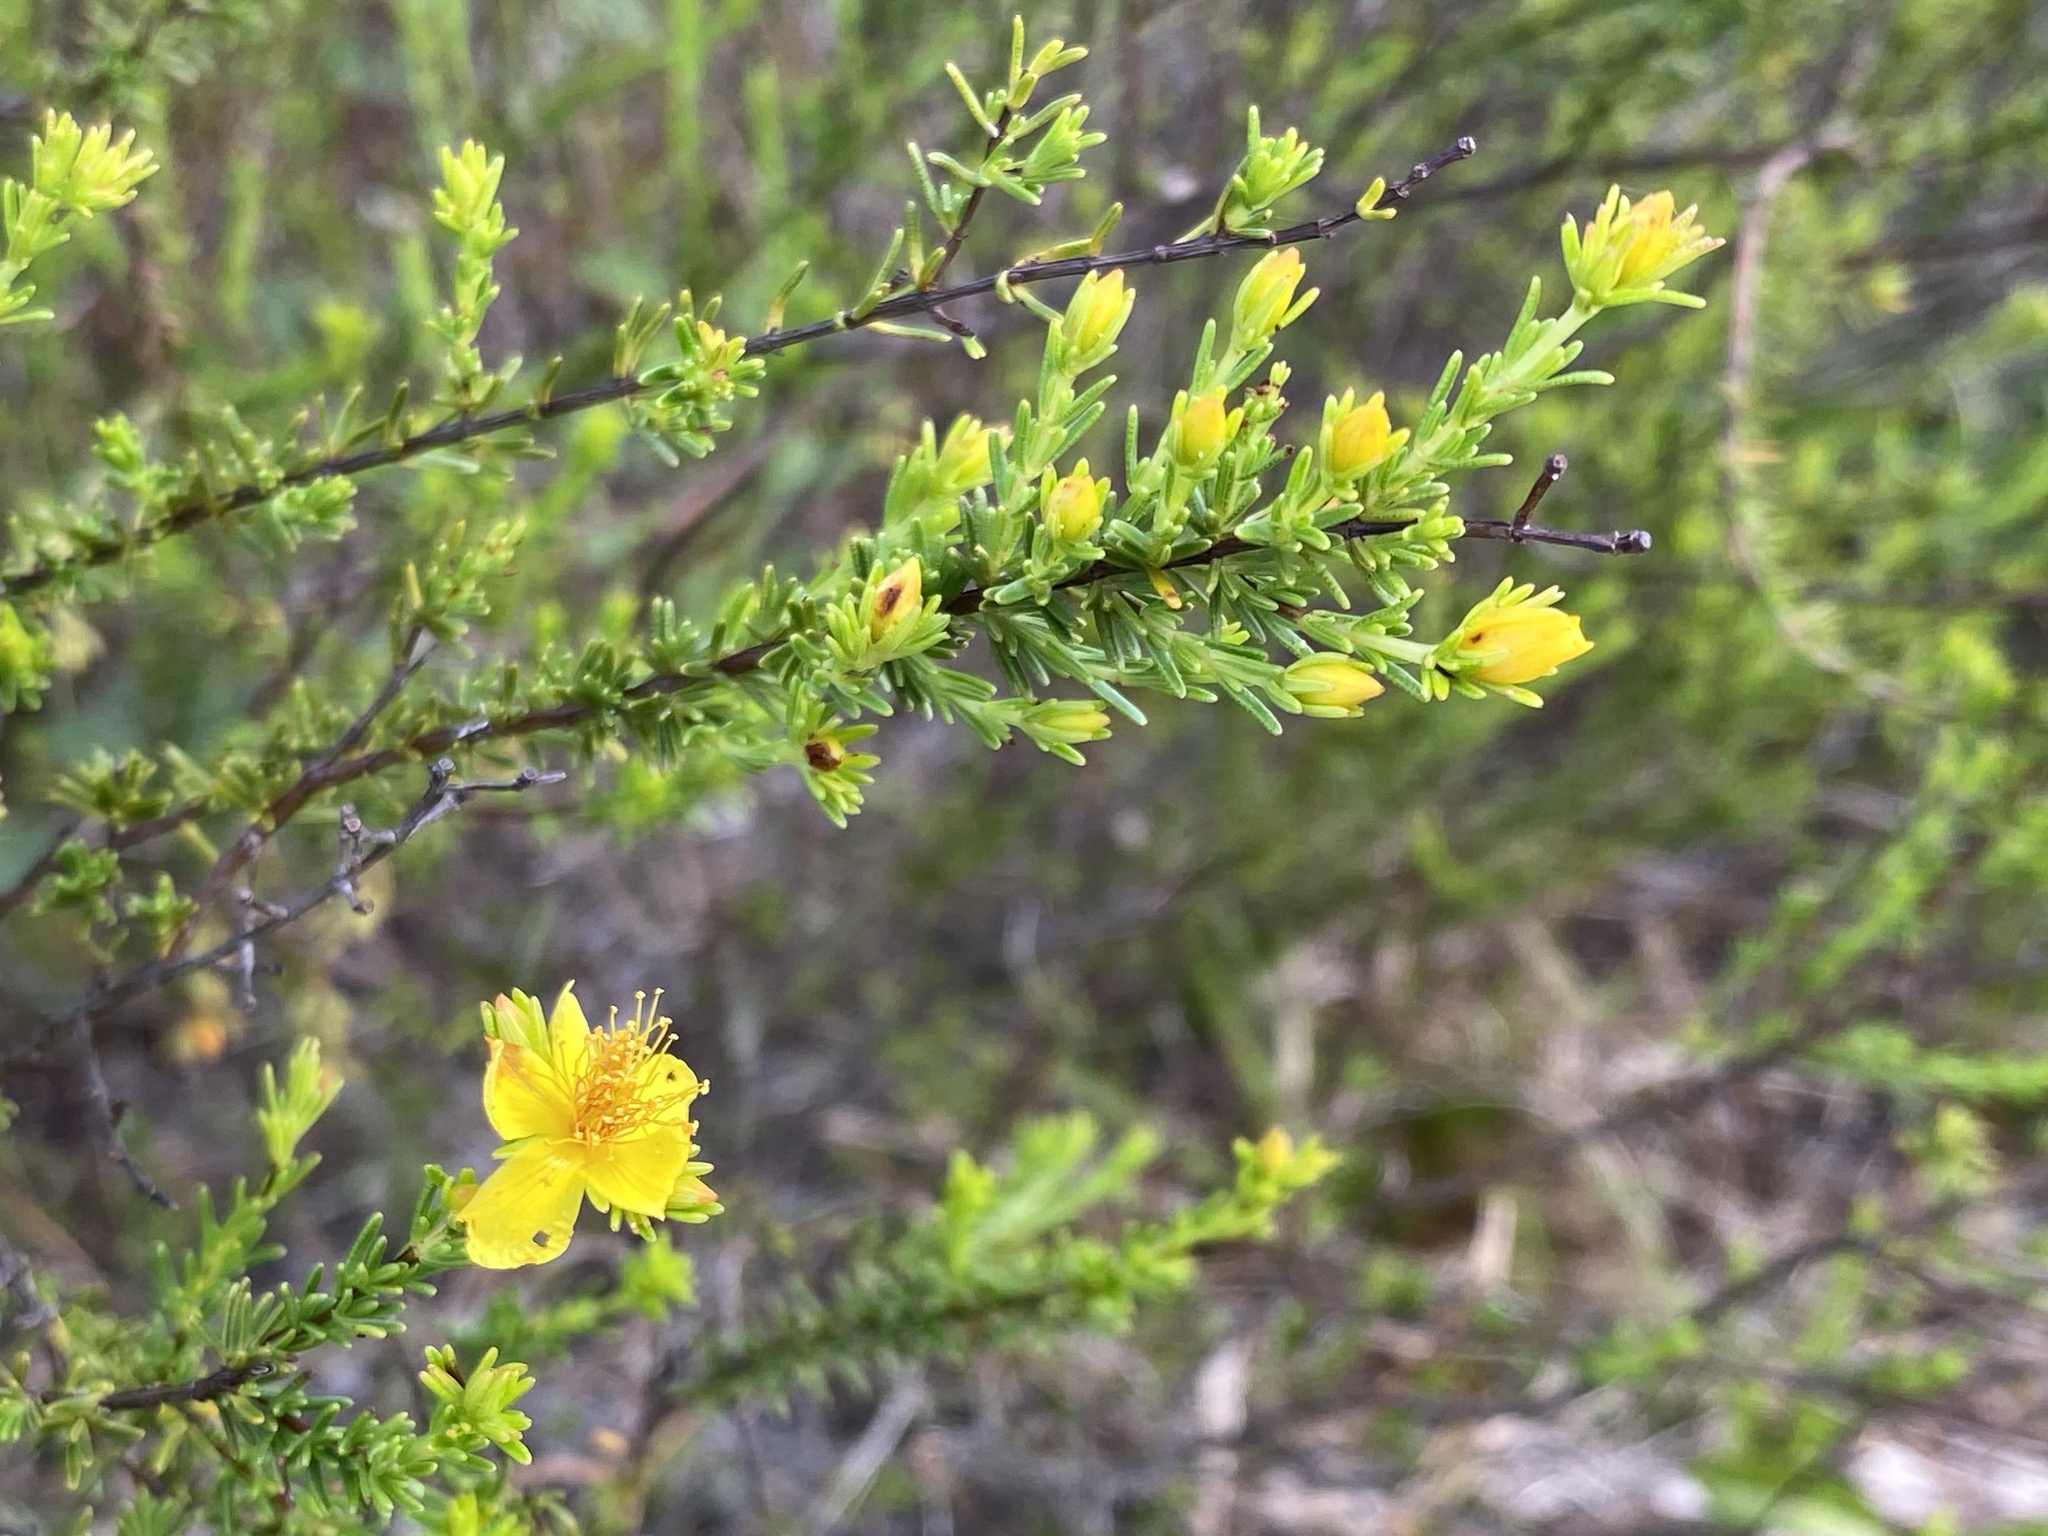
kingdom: Plantae
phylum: Tracheophyta
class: Magnoliopsida
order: Malpighiales
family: Hypericaceae
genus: Hypericum
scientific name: Hypericum tenuifolium
